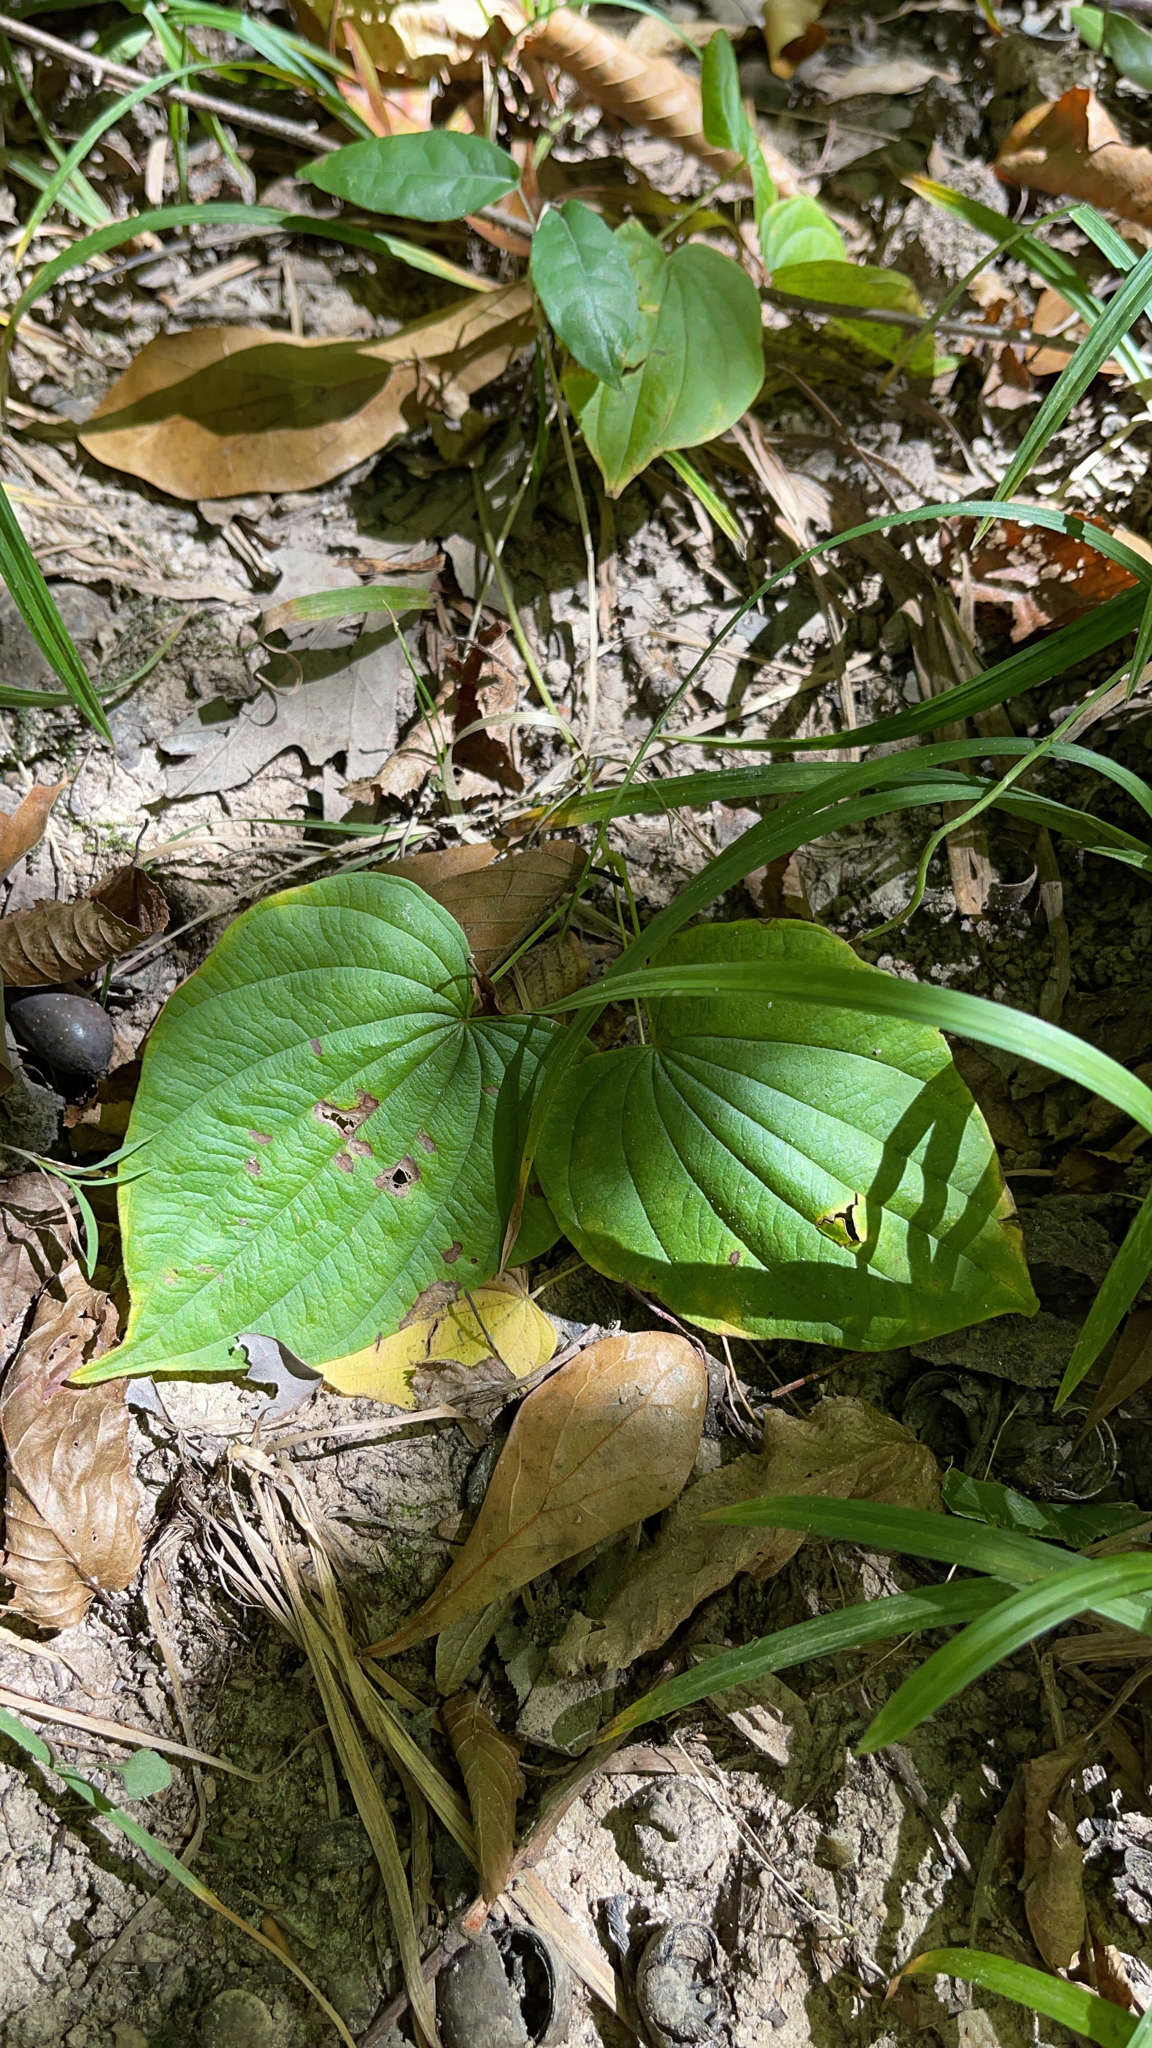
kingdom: Plantae
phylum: Tracheophyta
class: Liliopsida
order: Dioscoreales
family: Dioscoreaceae
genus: Dioscorea
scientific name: Dioscorea villosa
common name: Wild yam
